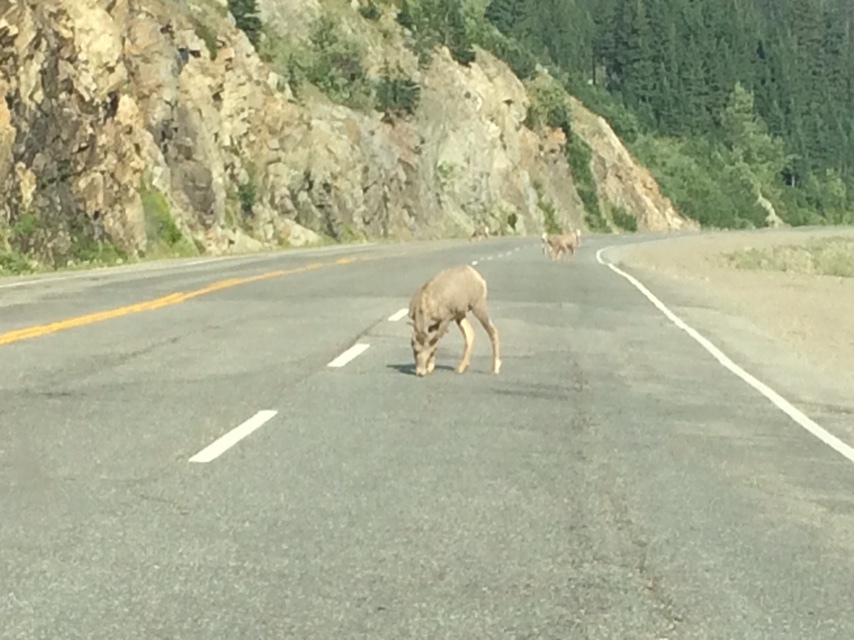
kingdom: Animalia
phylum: Chordata
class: Mammalia
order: Artiodactyla
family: Bovidae
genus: Ovis
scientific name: Ovis canadensis
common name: Bighorn sheep
